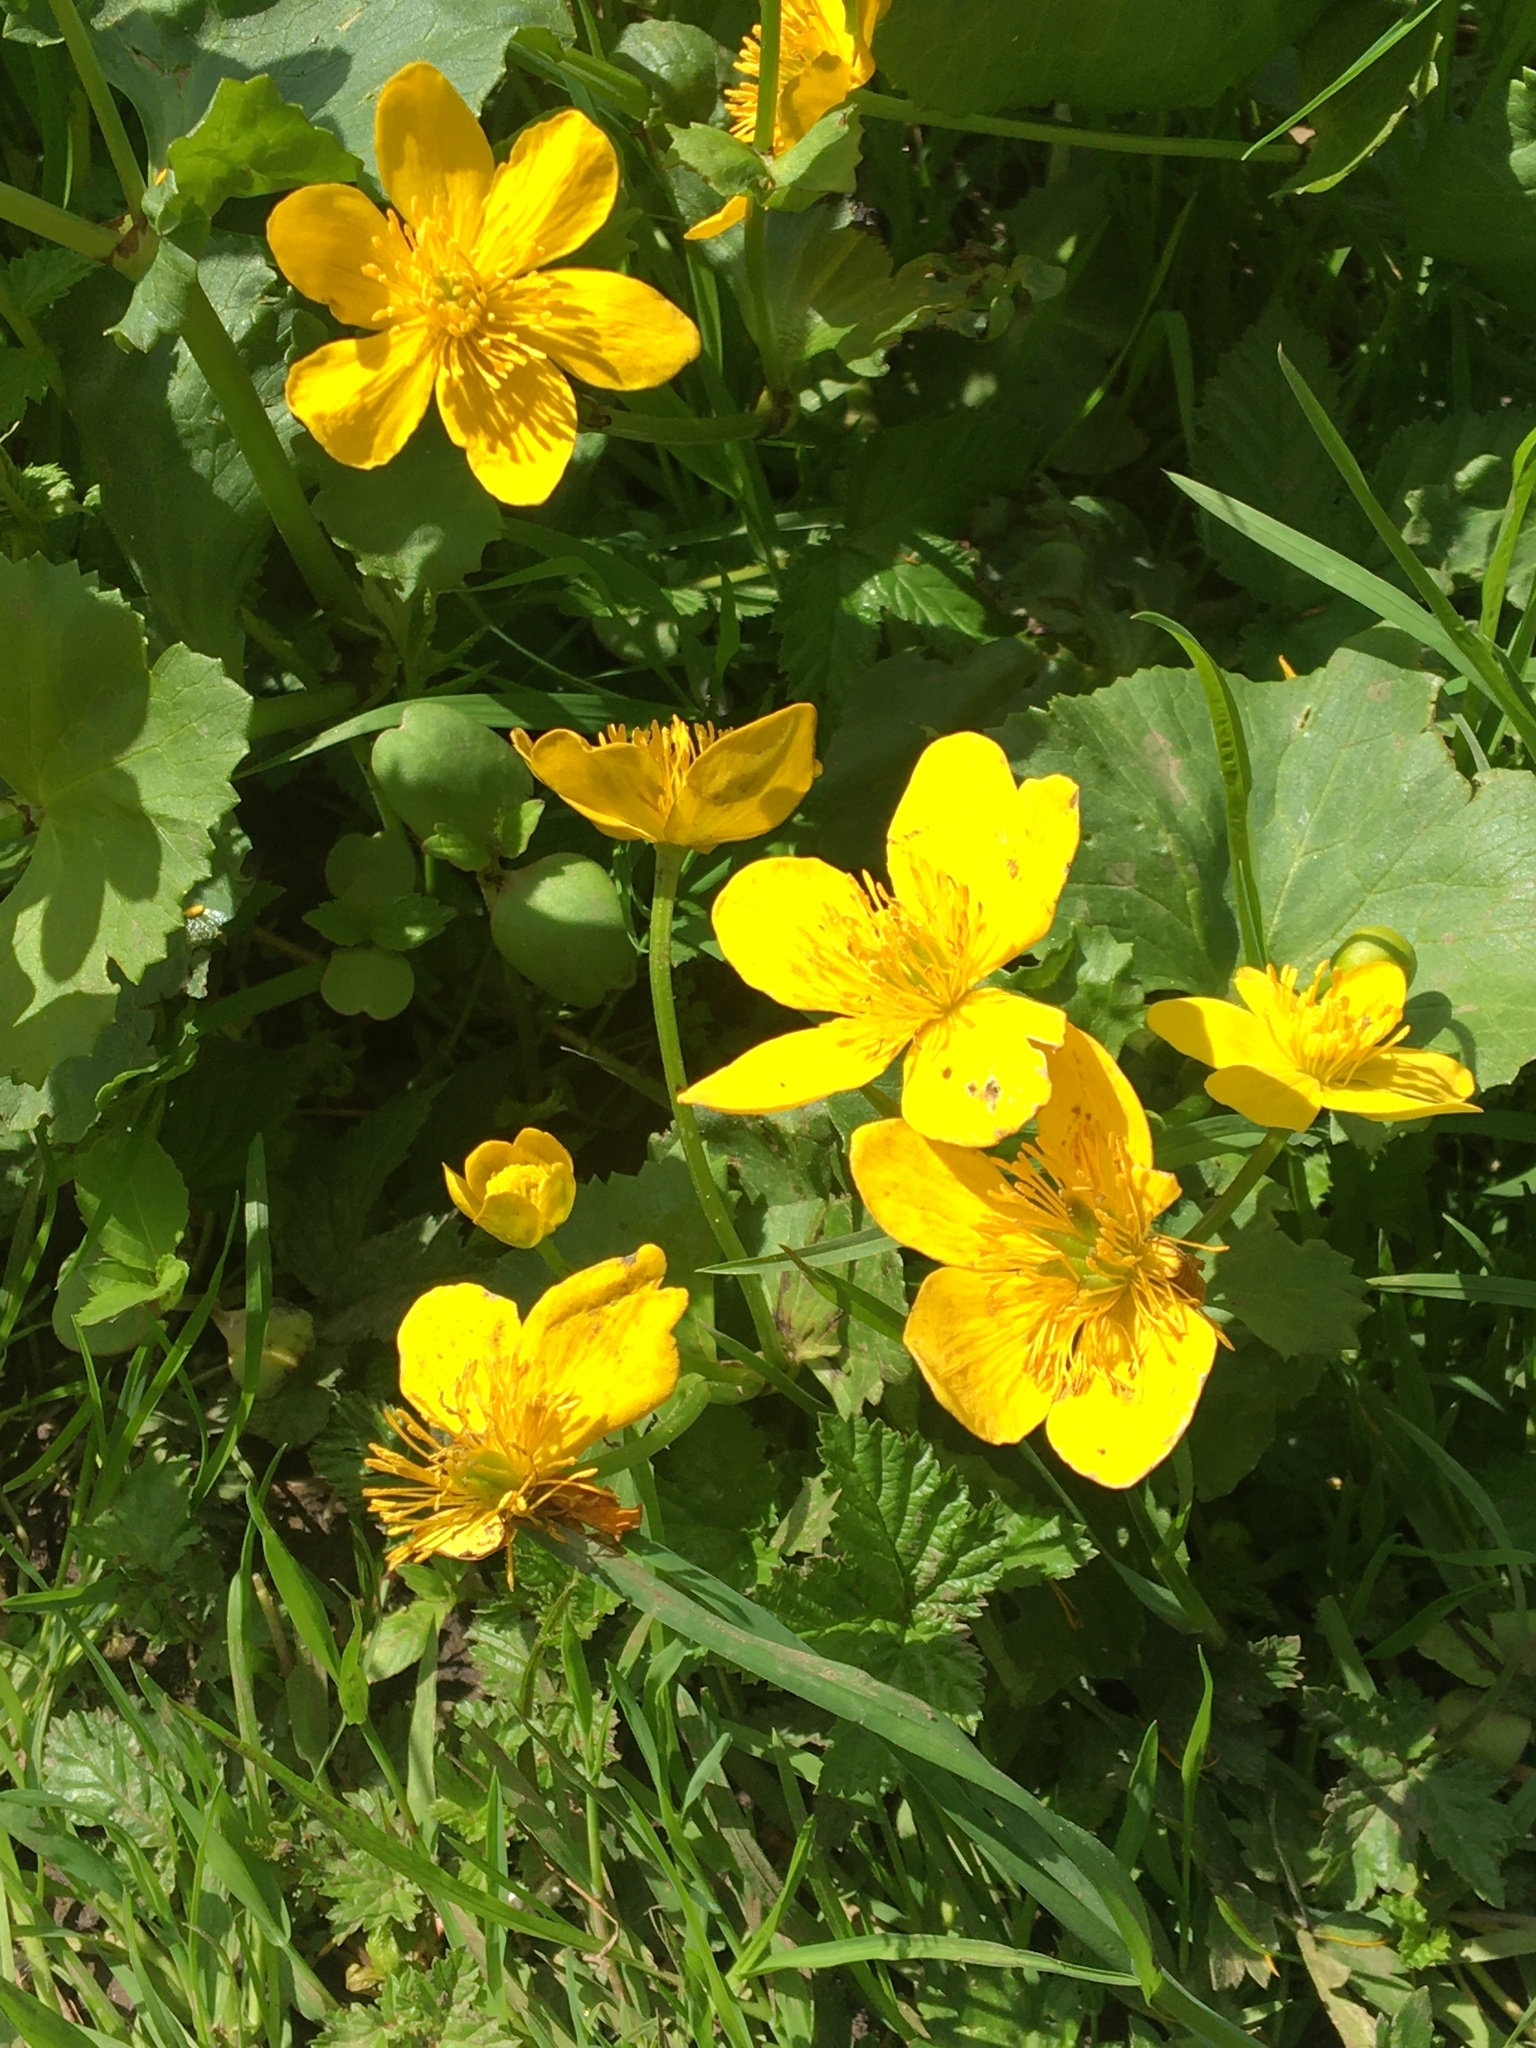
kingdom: Plantae
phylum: Tracheophyta
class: Magnoliopsida
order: Ranunculales
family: Ranunculaceae
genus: Caltha
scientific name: Caltha palustris
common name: Marsh marigold
